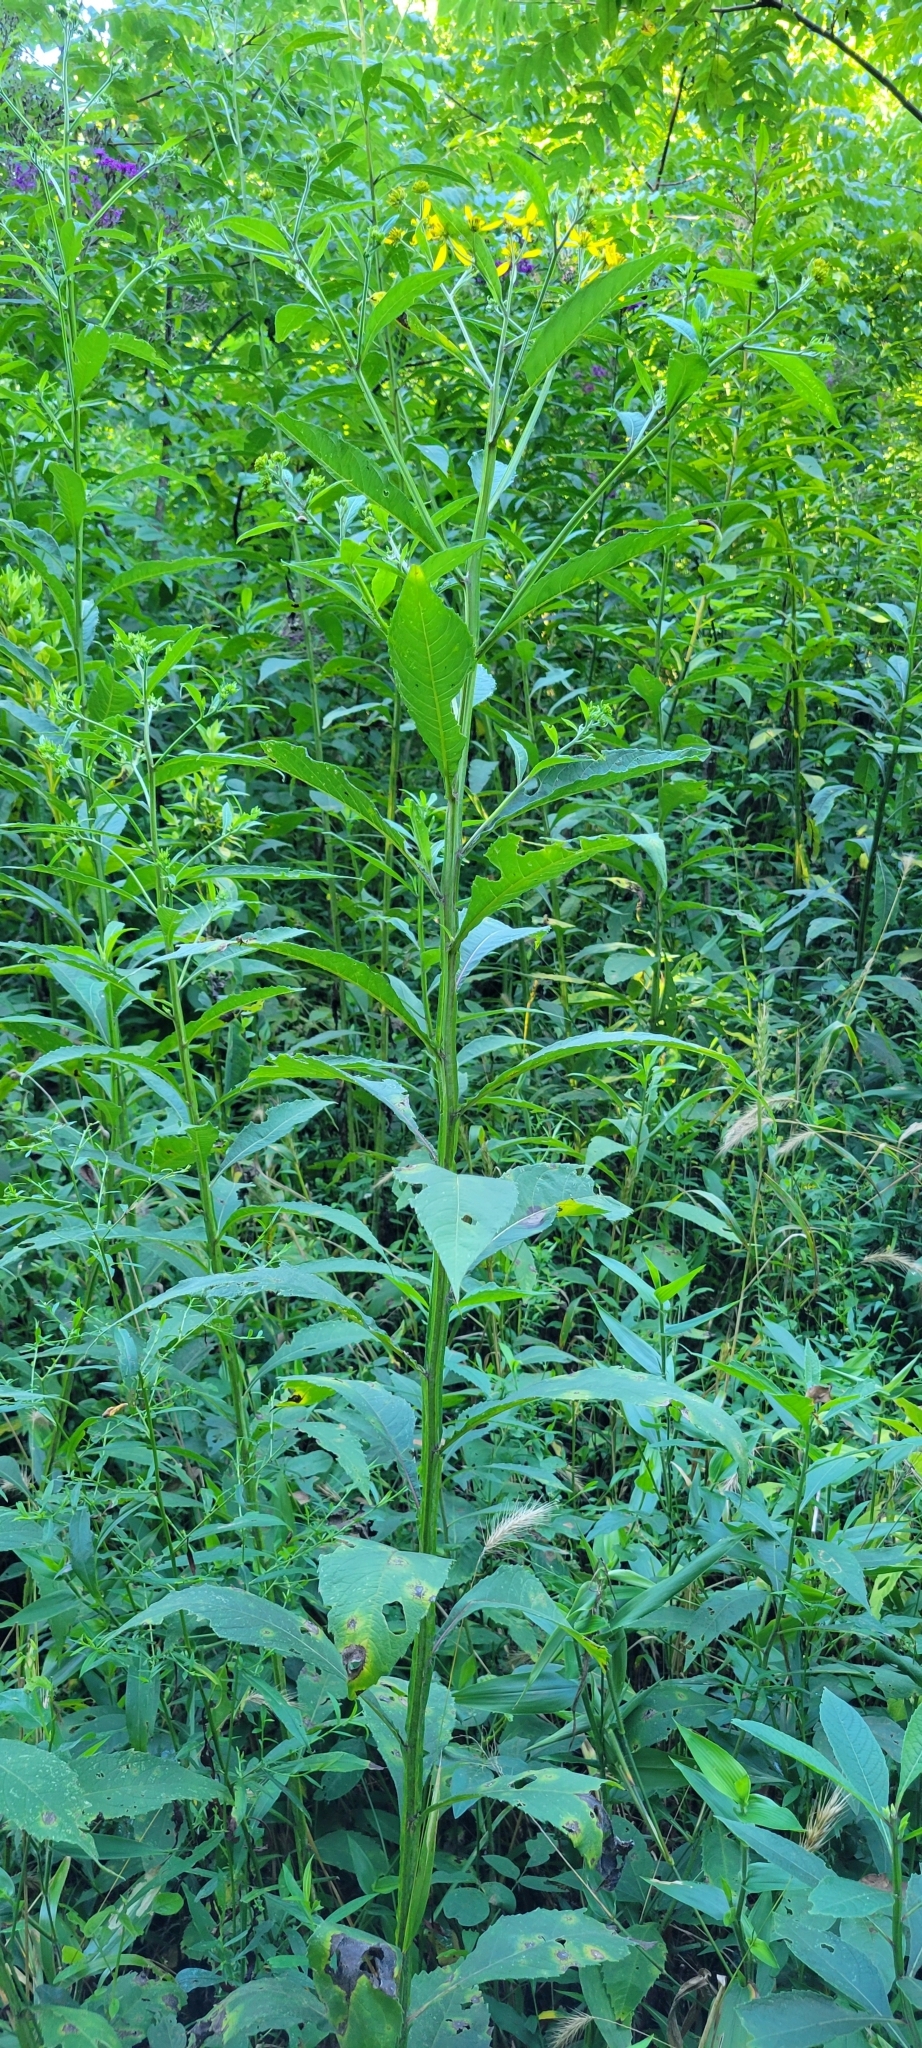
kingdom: Plantae
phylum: Tracheophyta
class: Magnoliopsida
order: Asterales
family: Asteraceae
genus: Verbesina
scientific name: Verbesina alternifolia
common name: Wingstem
